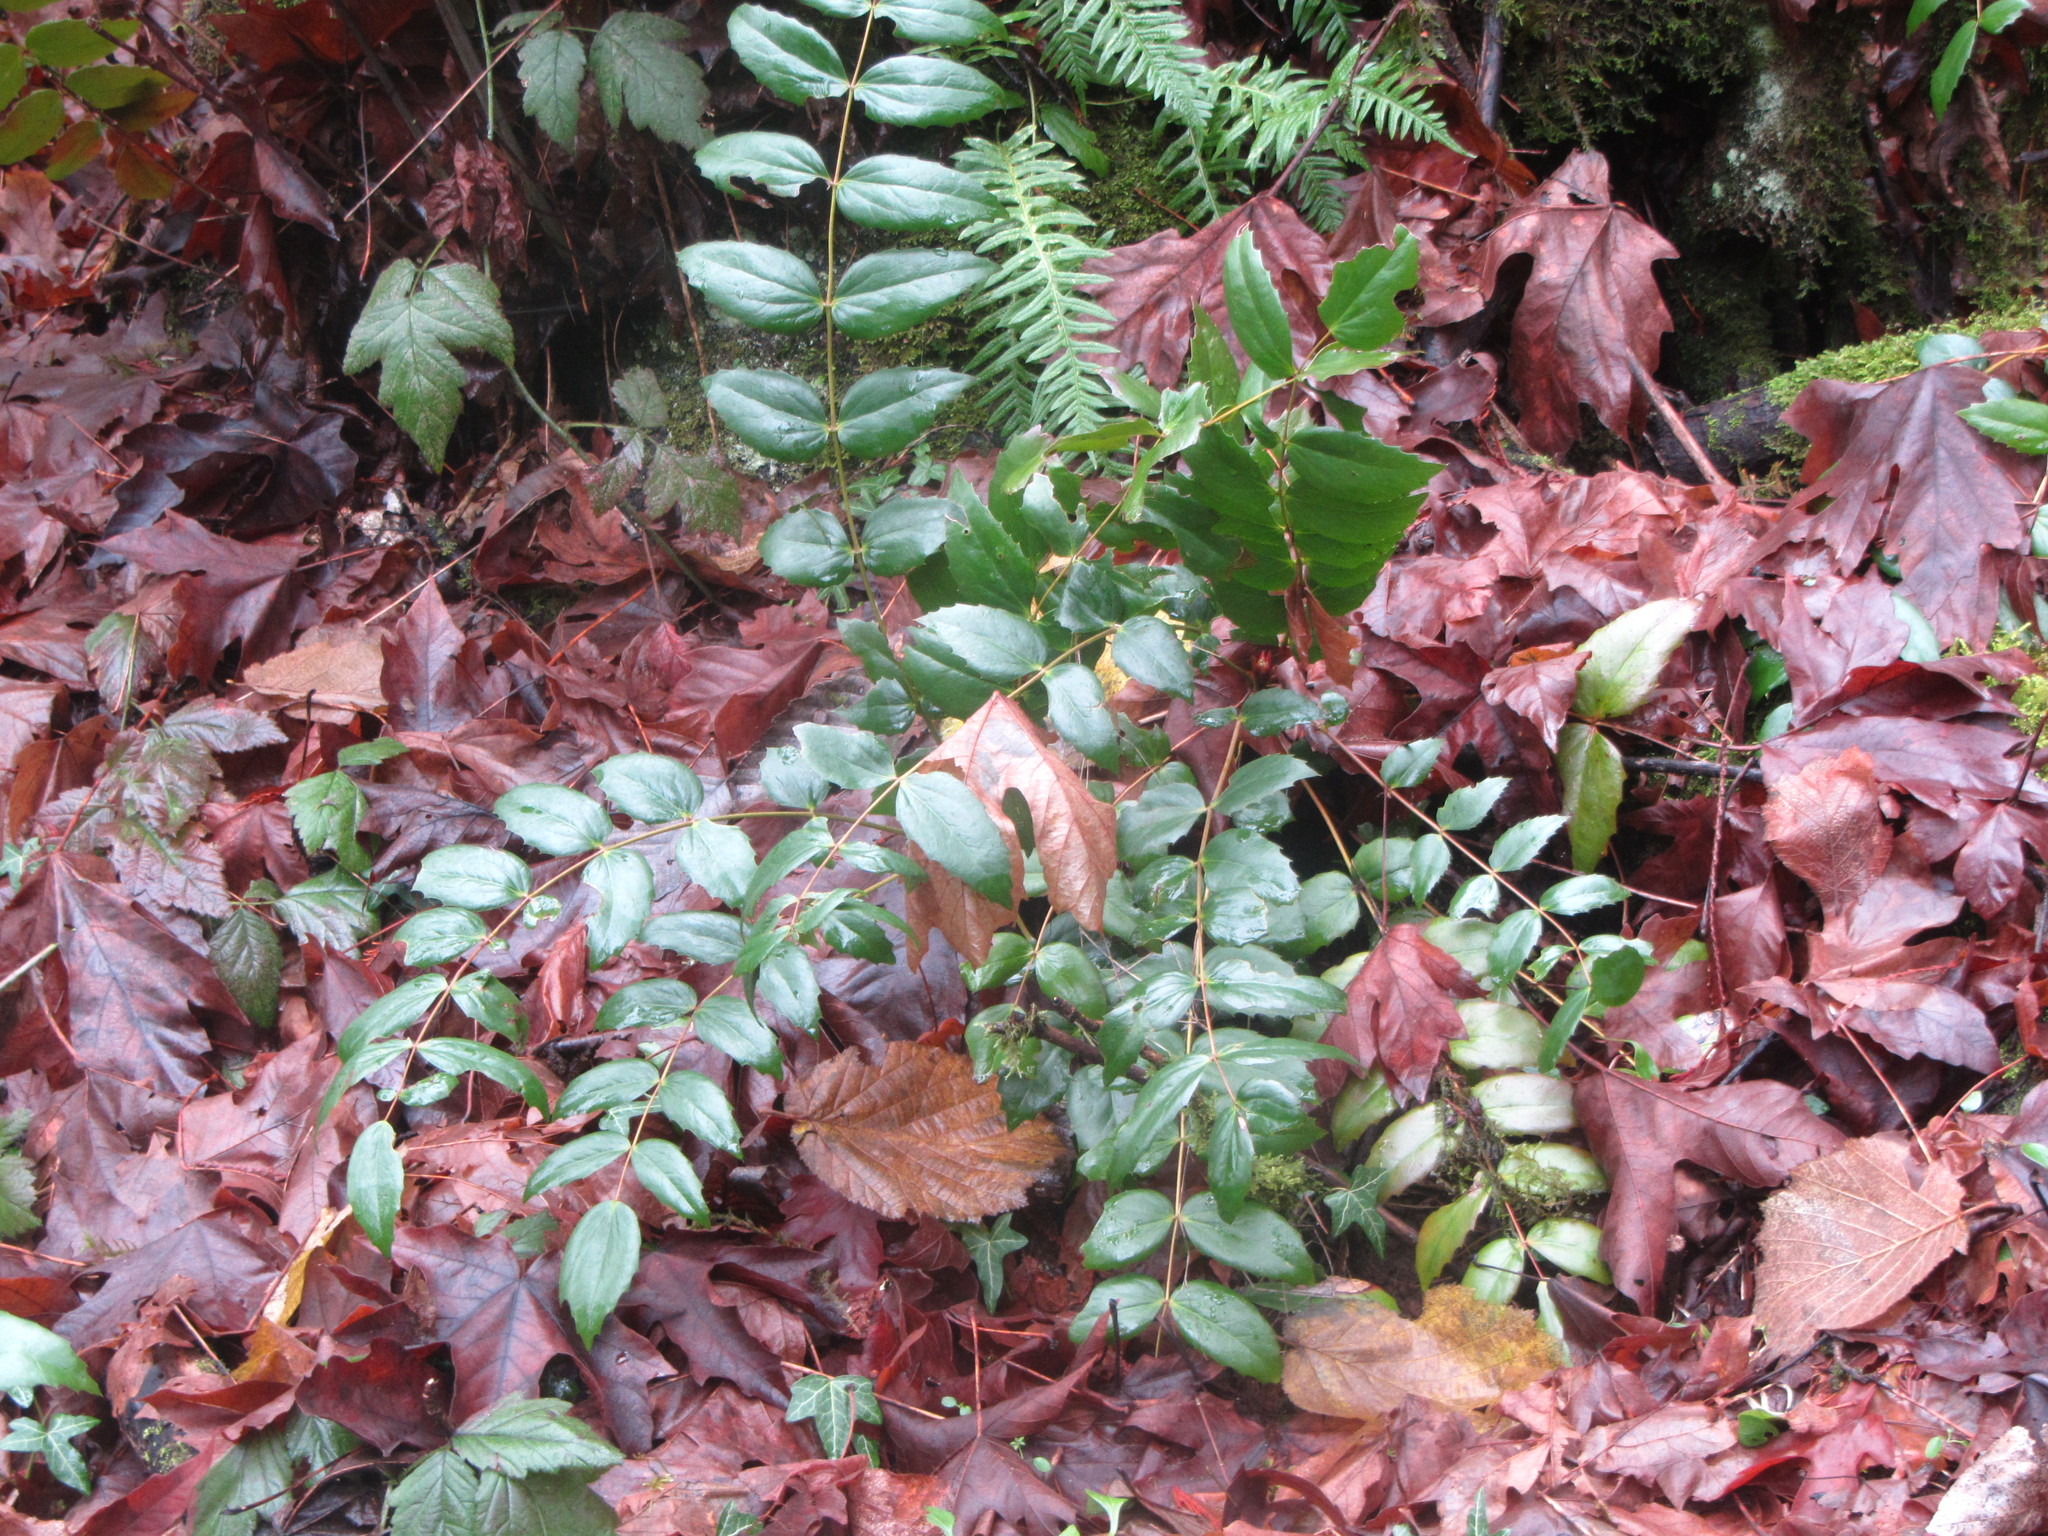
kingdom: Plantae
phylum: Tracheophyta
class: Magnoliopsida
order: Ranunculales
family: Berberidaceae
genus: Mahonia
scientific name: Mahonia nervosa
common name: Cascade oregon-grape
